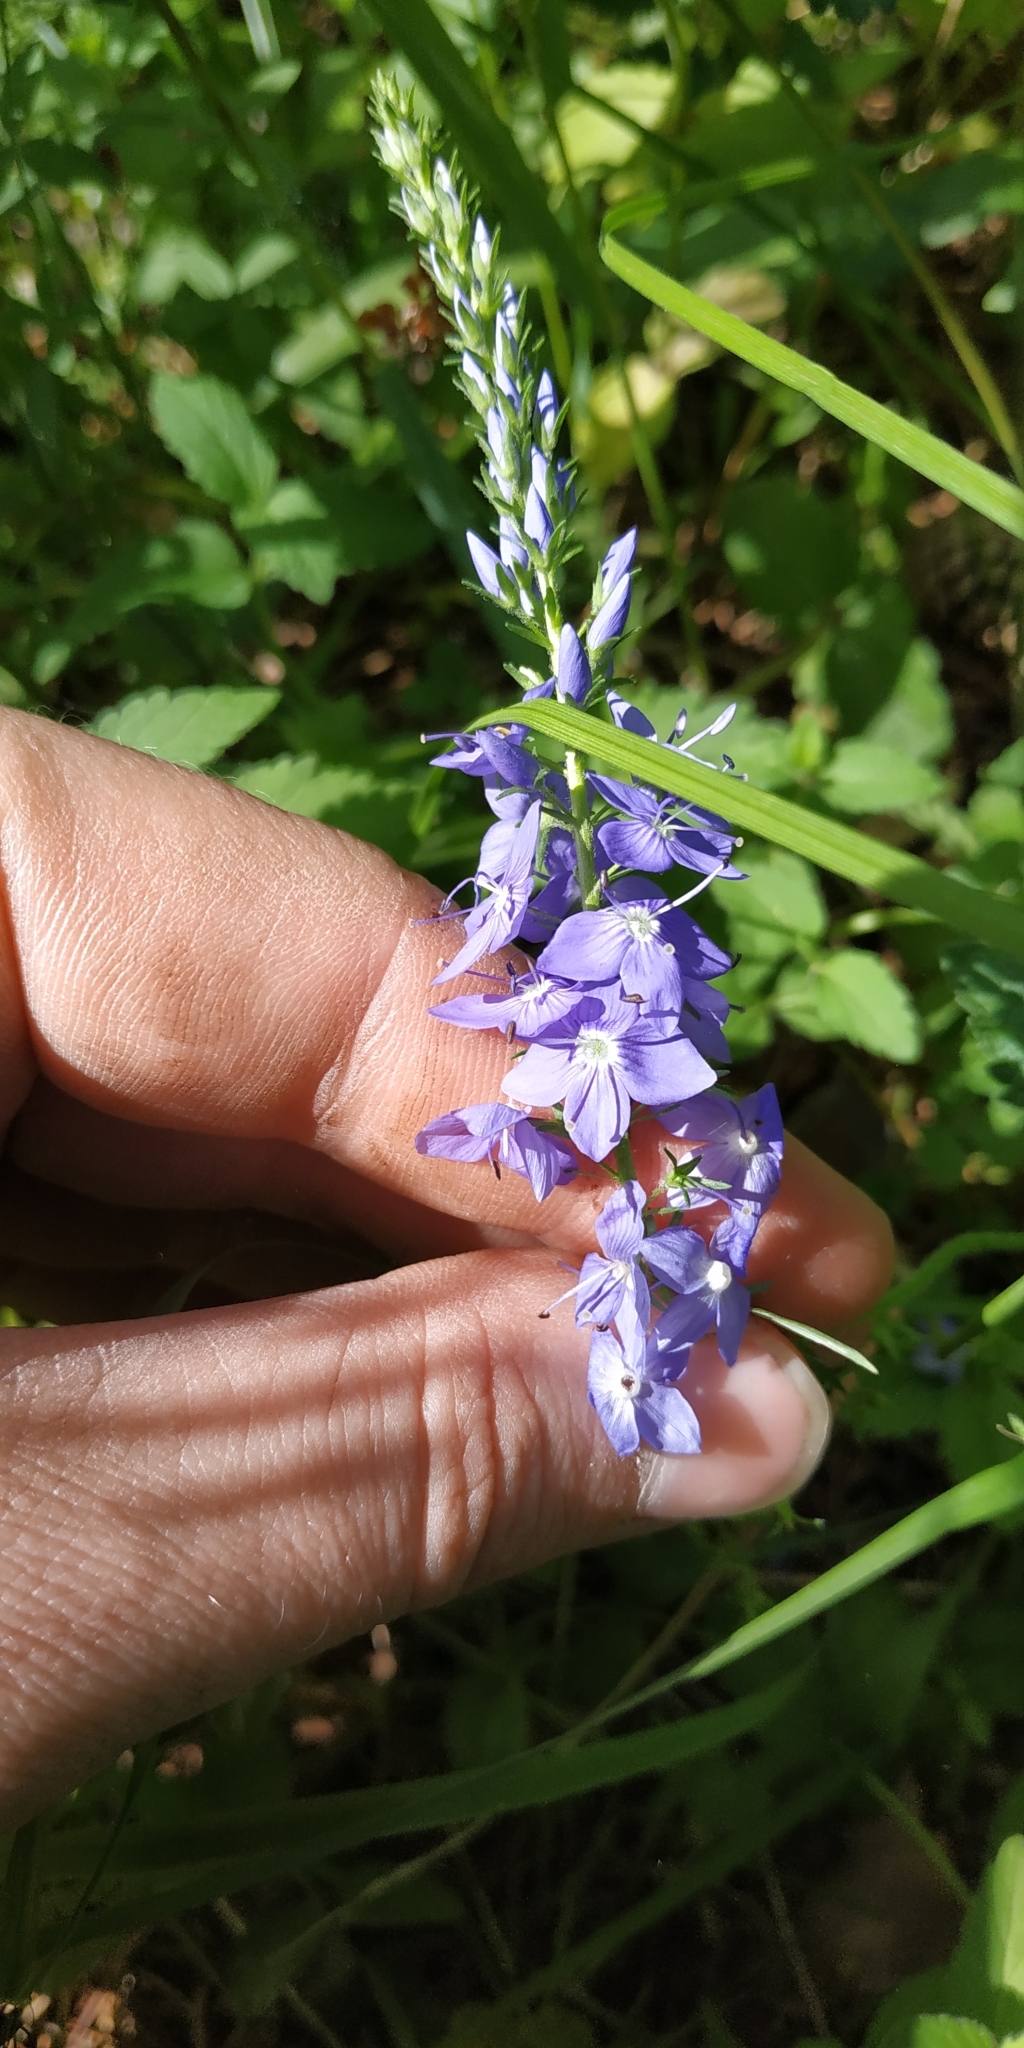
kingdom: Plantae
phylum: Tracheophyta
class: Magnoliopsida
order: Lamiales
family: Plantaginaceae
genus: Veronica
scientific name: Veronica teucrium
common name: Large speedwell
